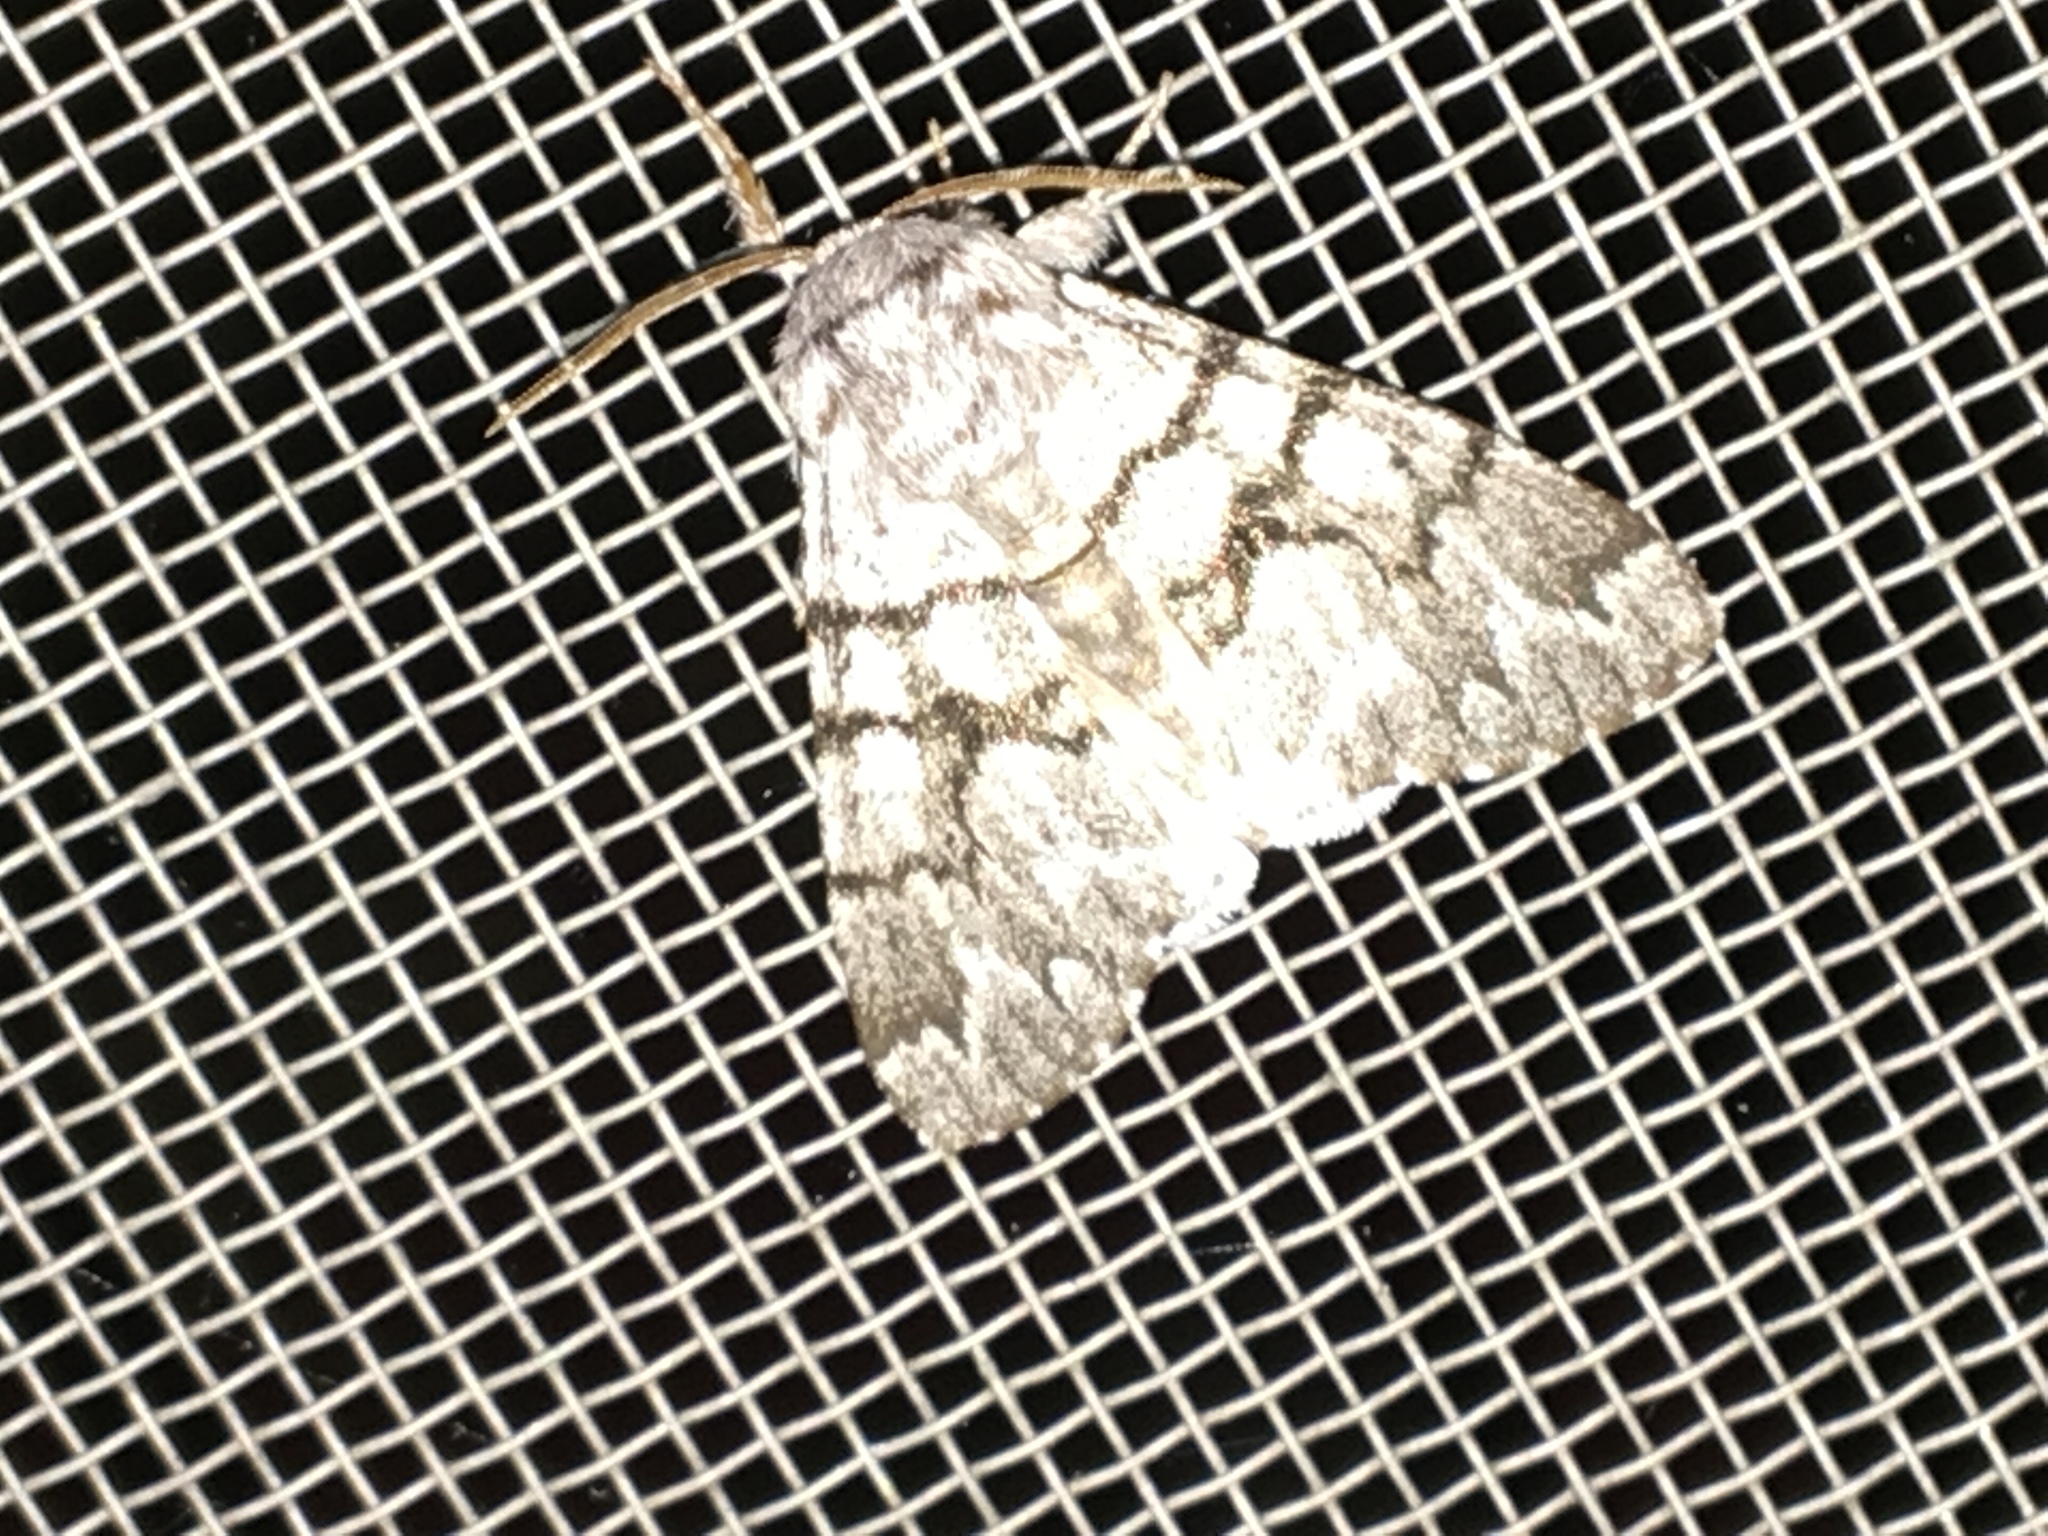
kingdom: Animalia
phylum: Arthropoda
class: Insecta
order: Lepidoptera
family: Noctuidae
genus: Panthea
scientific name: Panthea furcilla
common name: Eastern panthea moth
